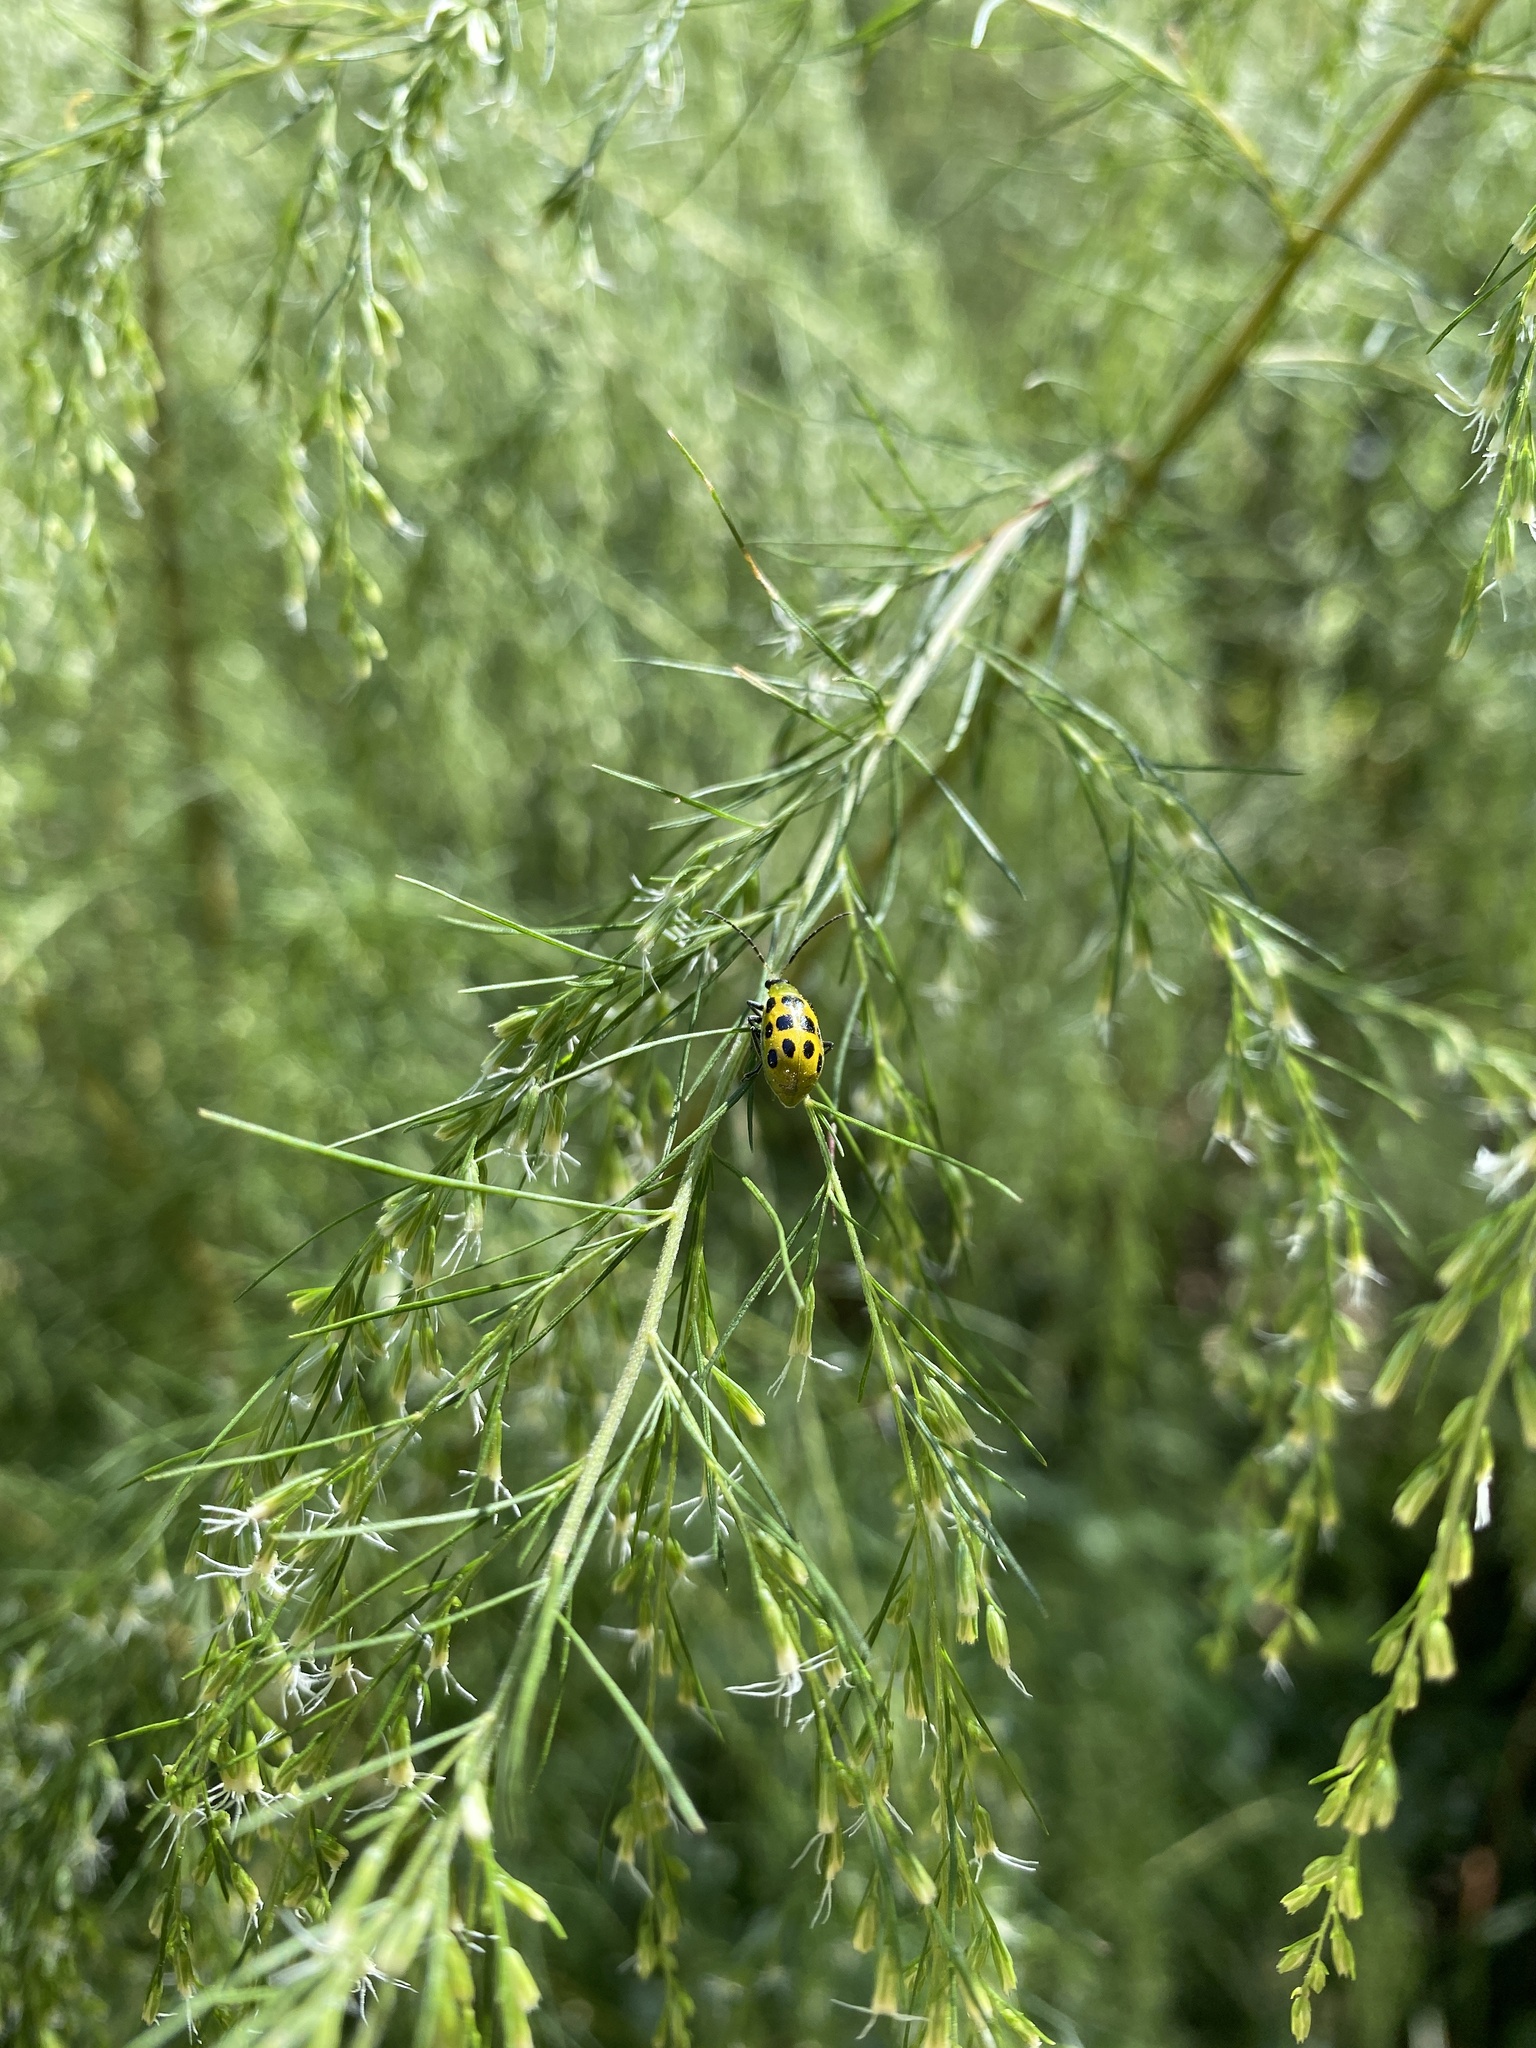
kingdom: Animalia
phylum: Arthropoda
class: Insecta
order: Coleoptera
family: Chrysomelidae
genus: Diabrotica
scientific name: Diabrotica undecimpunctata
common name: Spotted cucumber beetle
